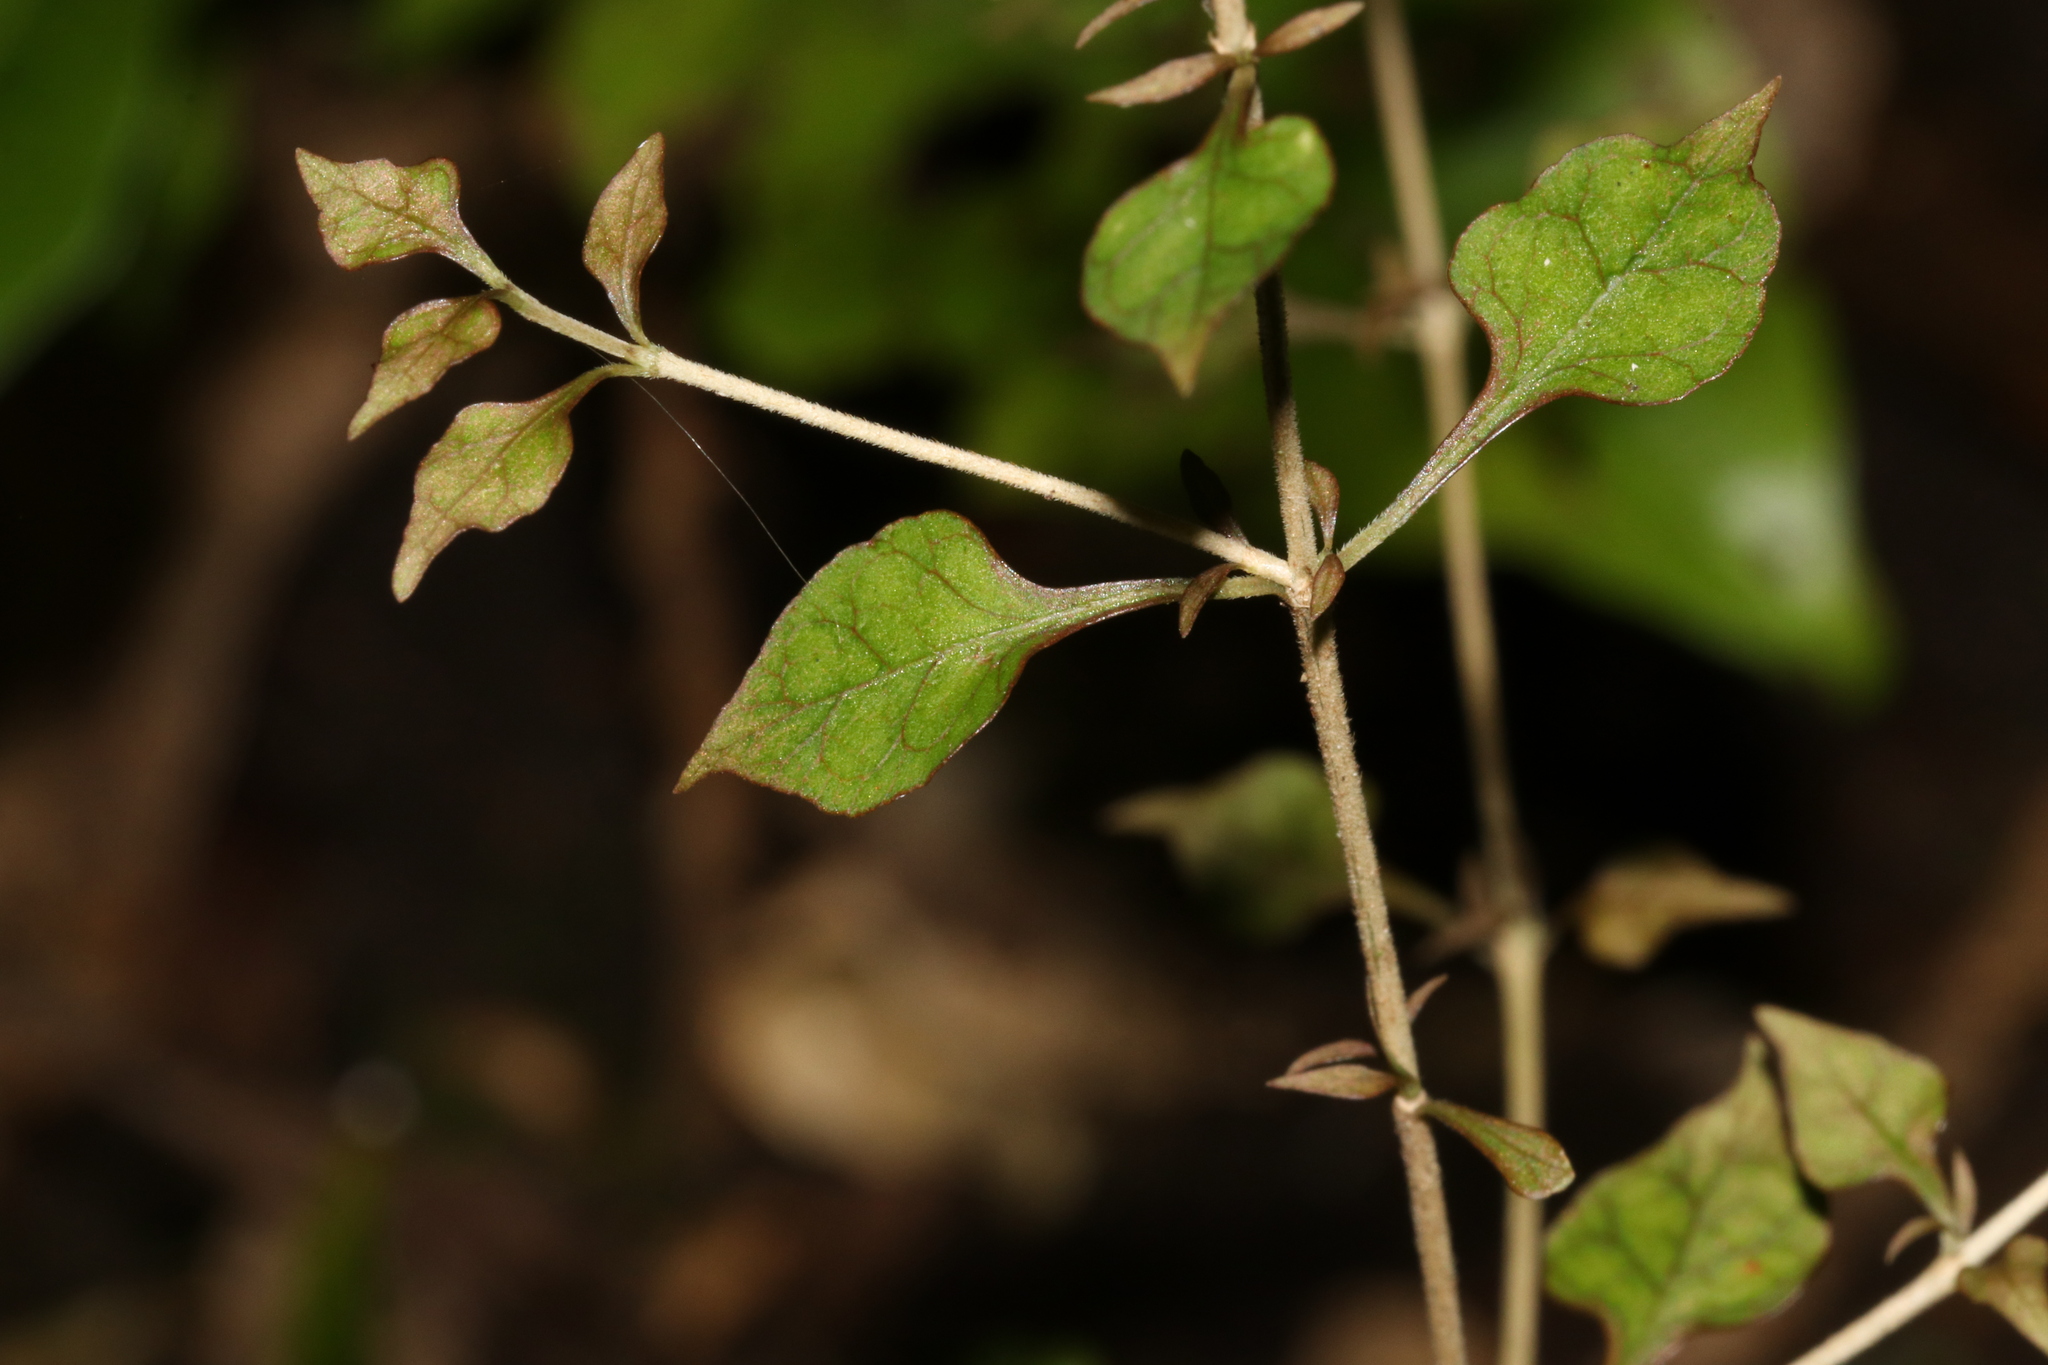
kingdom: Plantae
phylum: Tracheophyta
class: Magnoliopsida
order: Gentianales
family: Rubiaceae
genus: Coprosma
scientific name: Coprosma areolata
